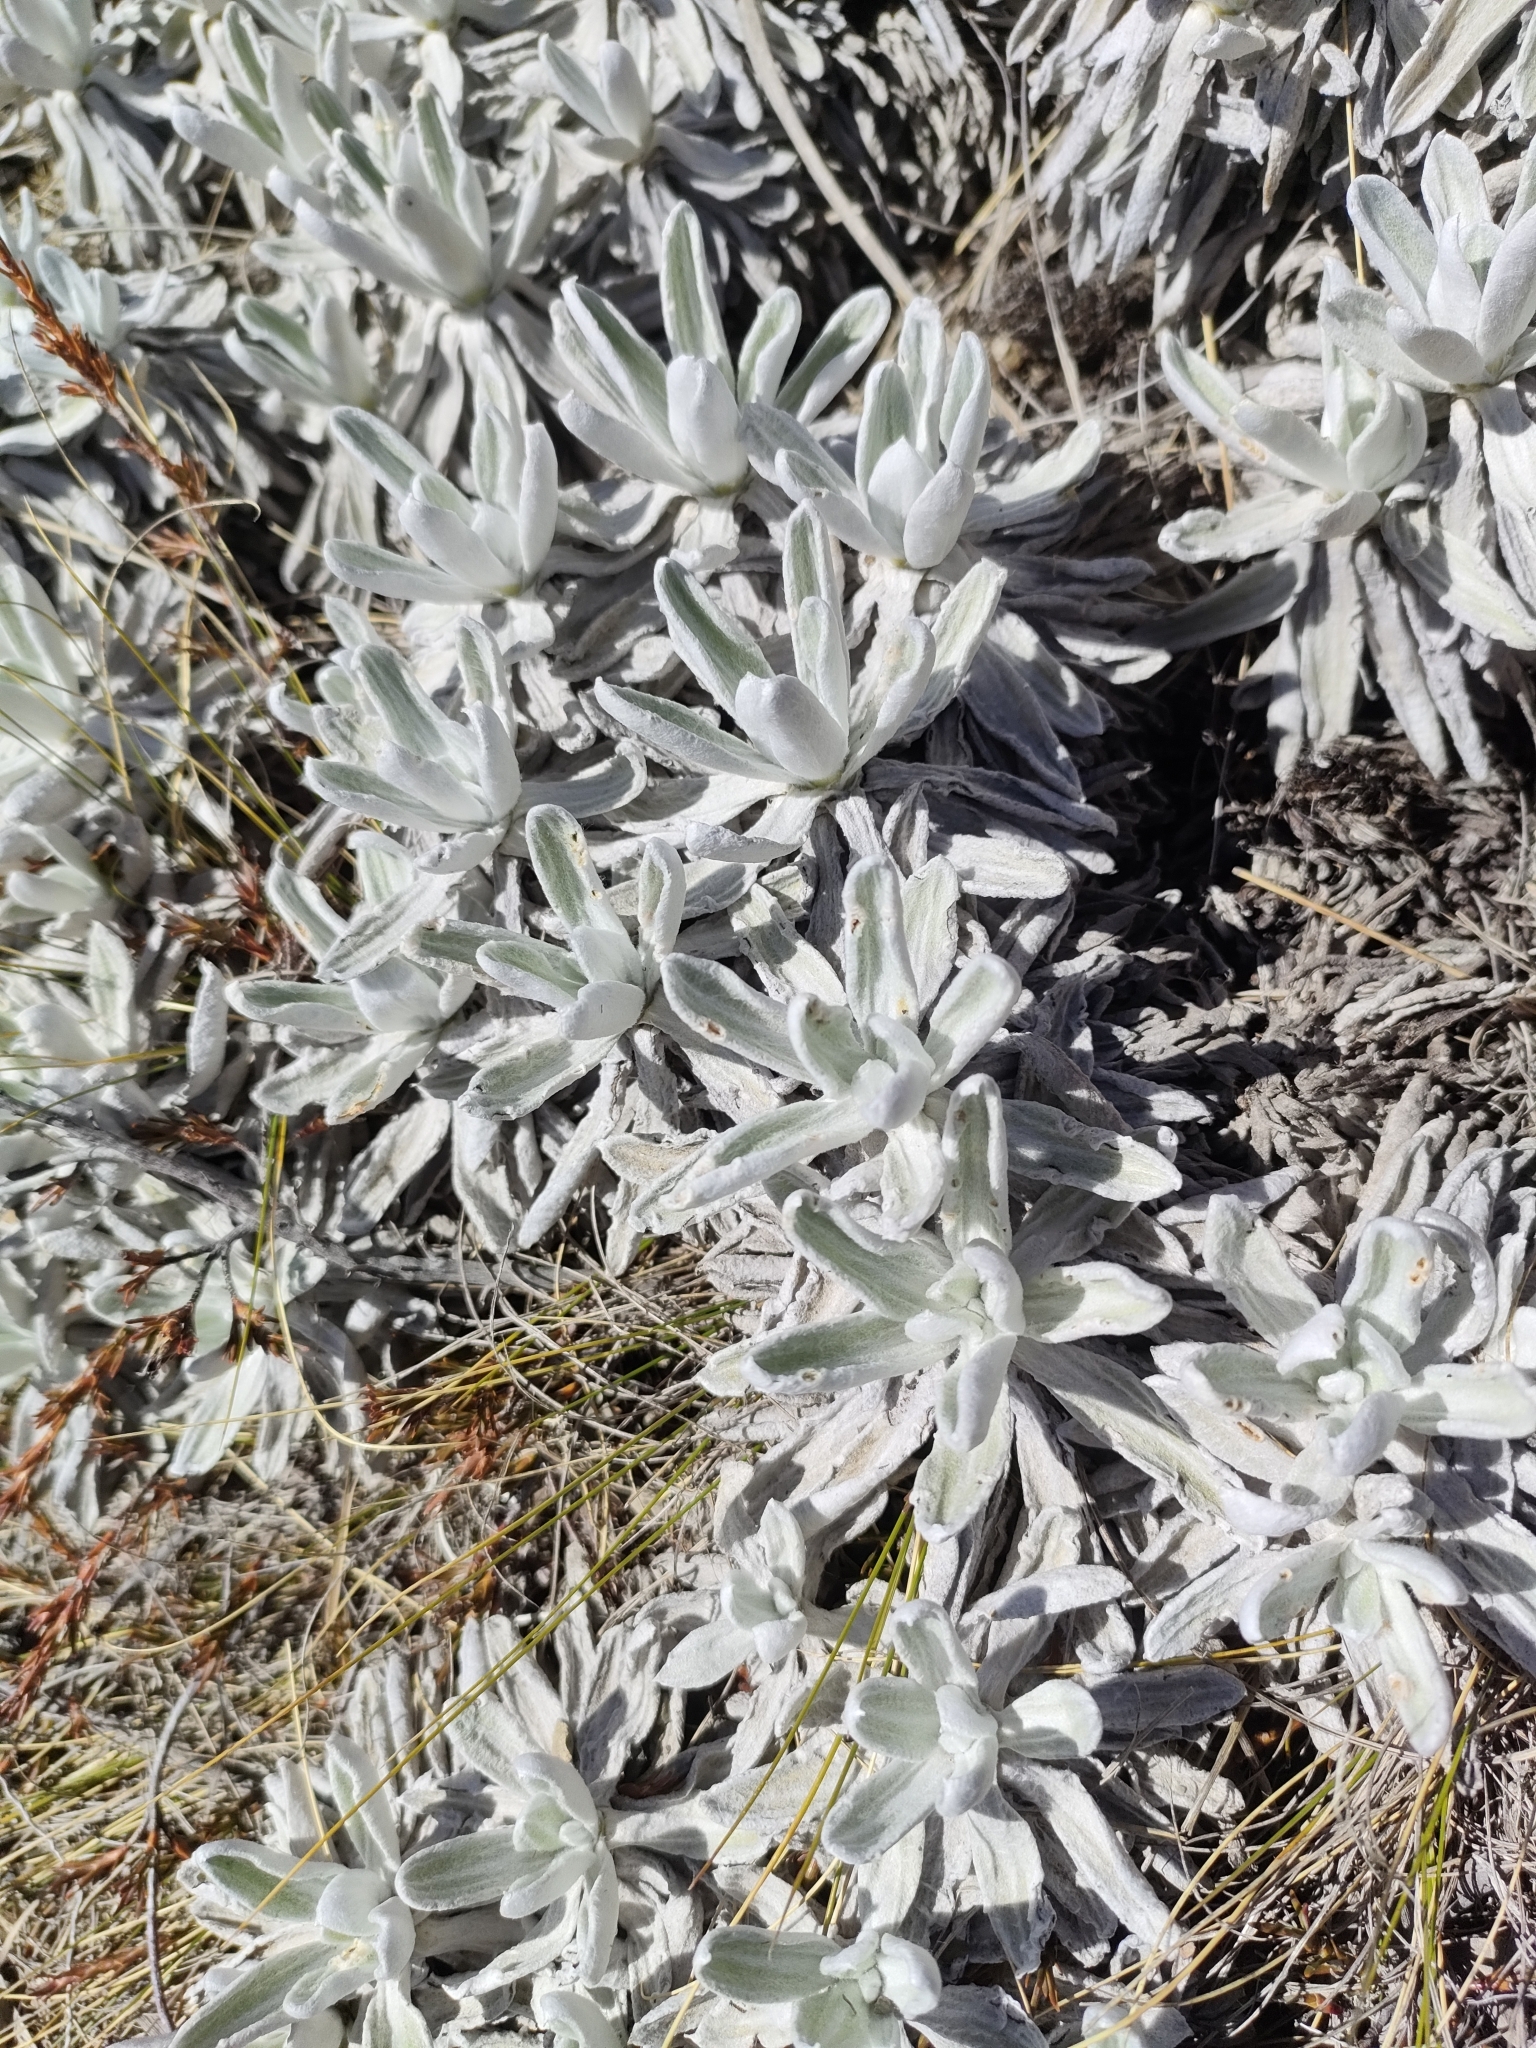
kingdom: Plantae
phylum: Tracheophyta
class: Magnoliopsida
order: Asterales
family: Asteraceae
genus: Celmisia
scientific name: Celmisia allanii
